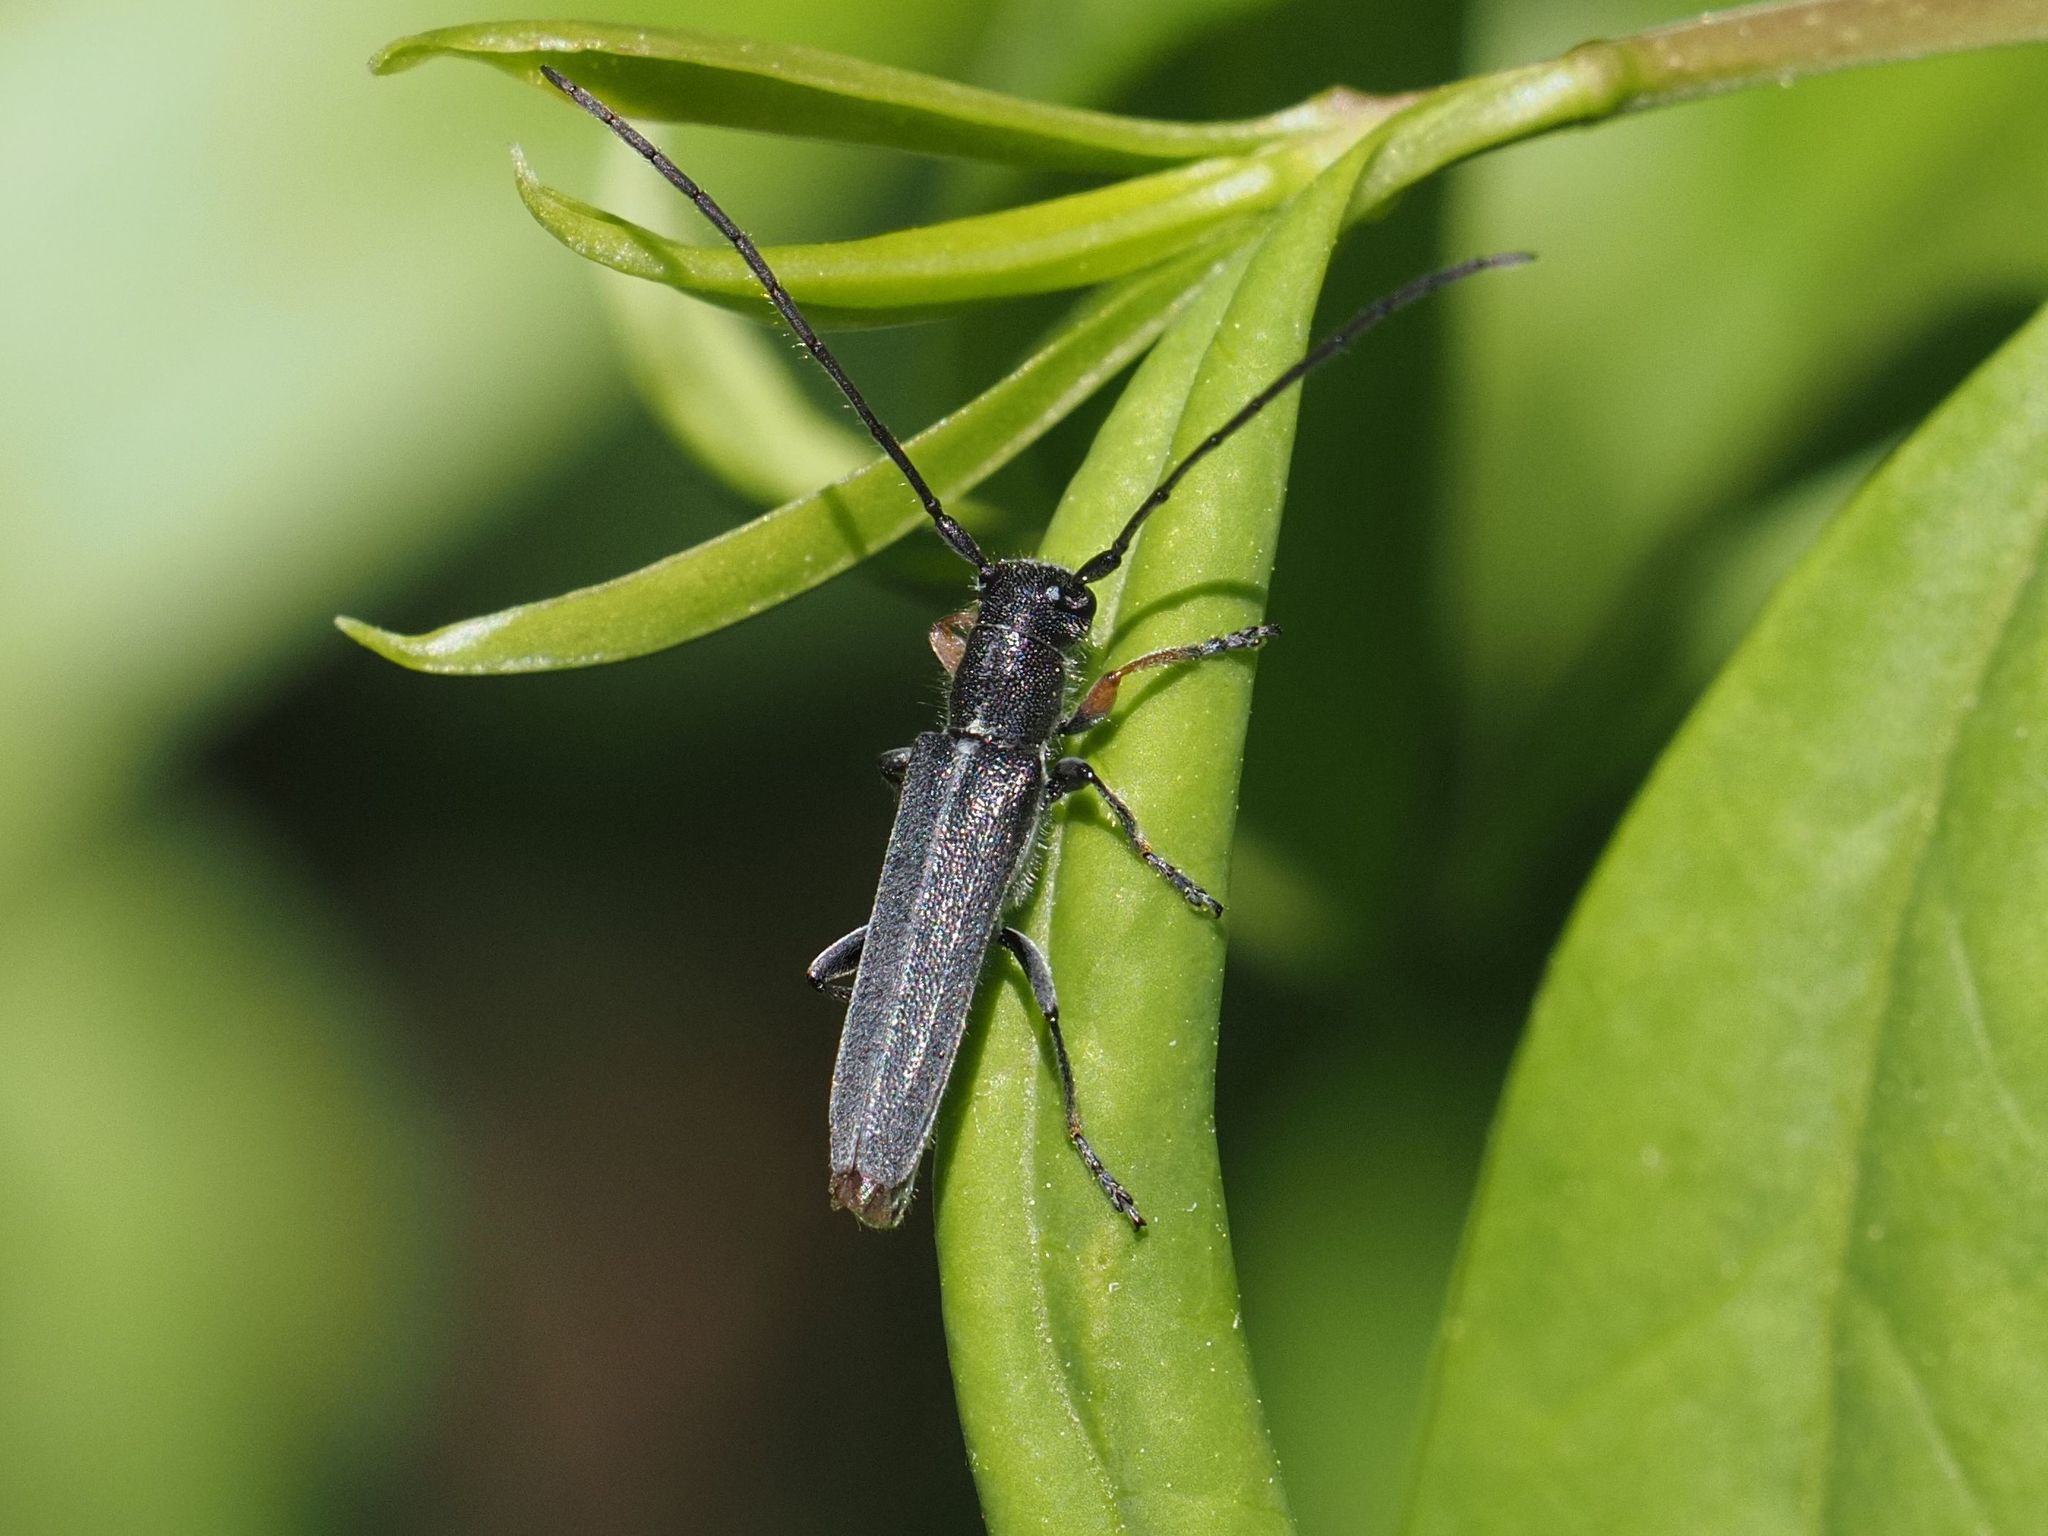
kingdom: Animalia
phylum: Arthropoda
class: Insecta
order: Coleoptera
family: Cerambycidae
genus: Phytoecia
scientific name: Phytoecia cylindrica
